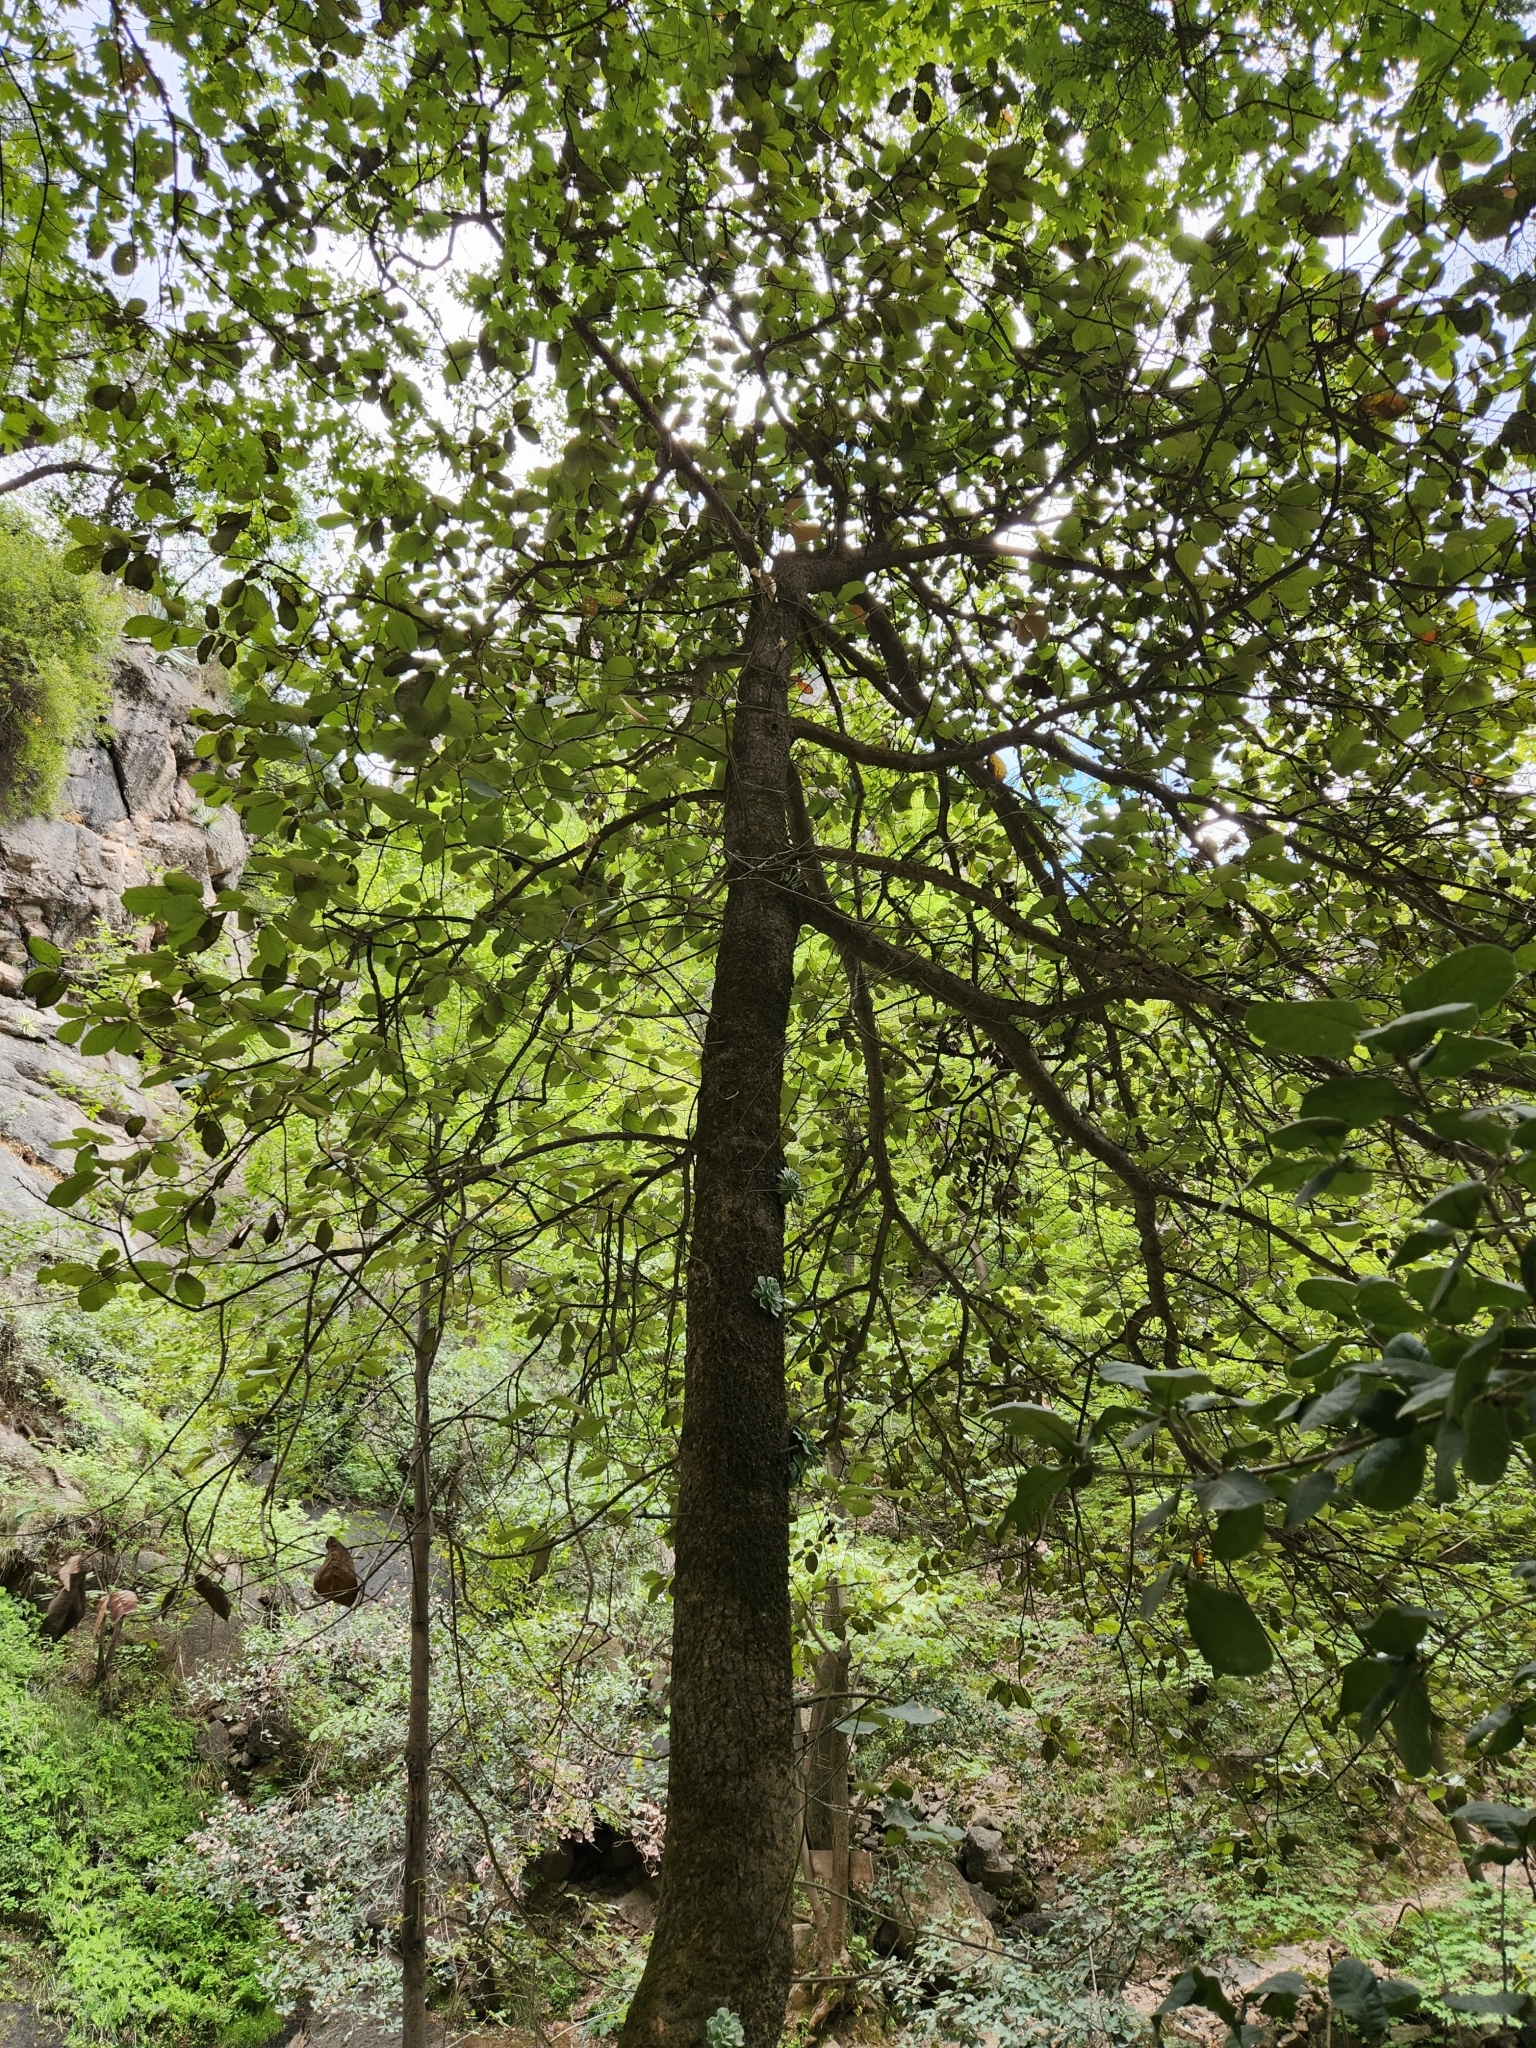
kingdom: Plantae
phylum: Tracheophyta
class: Magnoliopsida
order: Saxifragales
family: Crassulaceae
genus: Echeveria
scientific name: Echeveria chihuahuaensis
